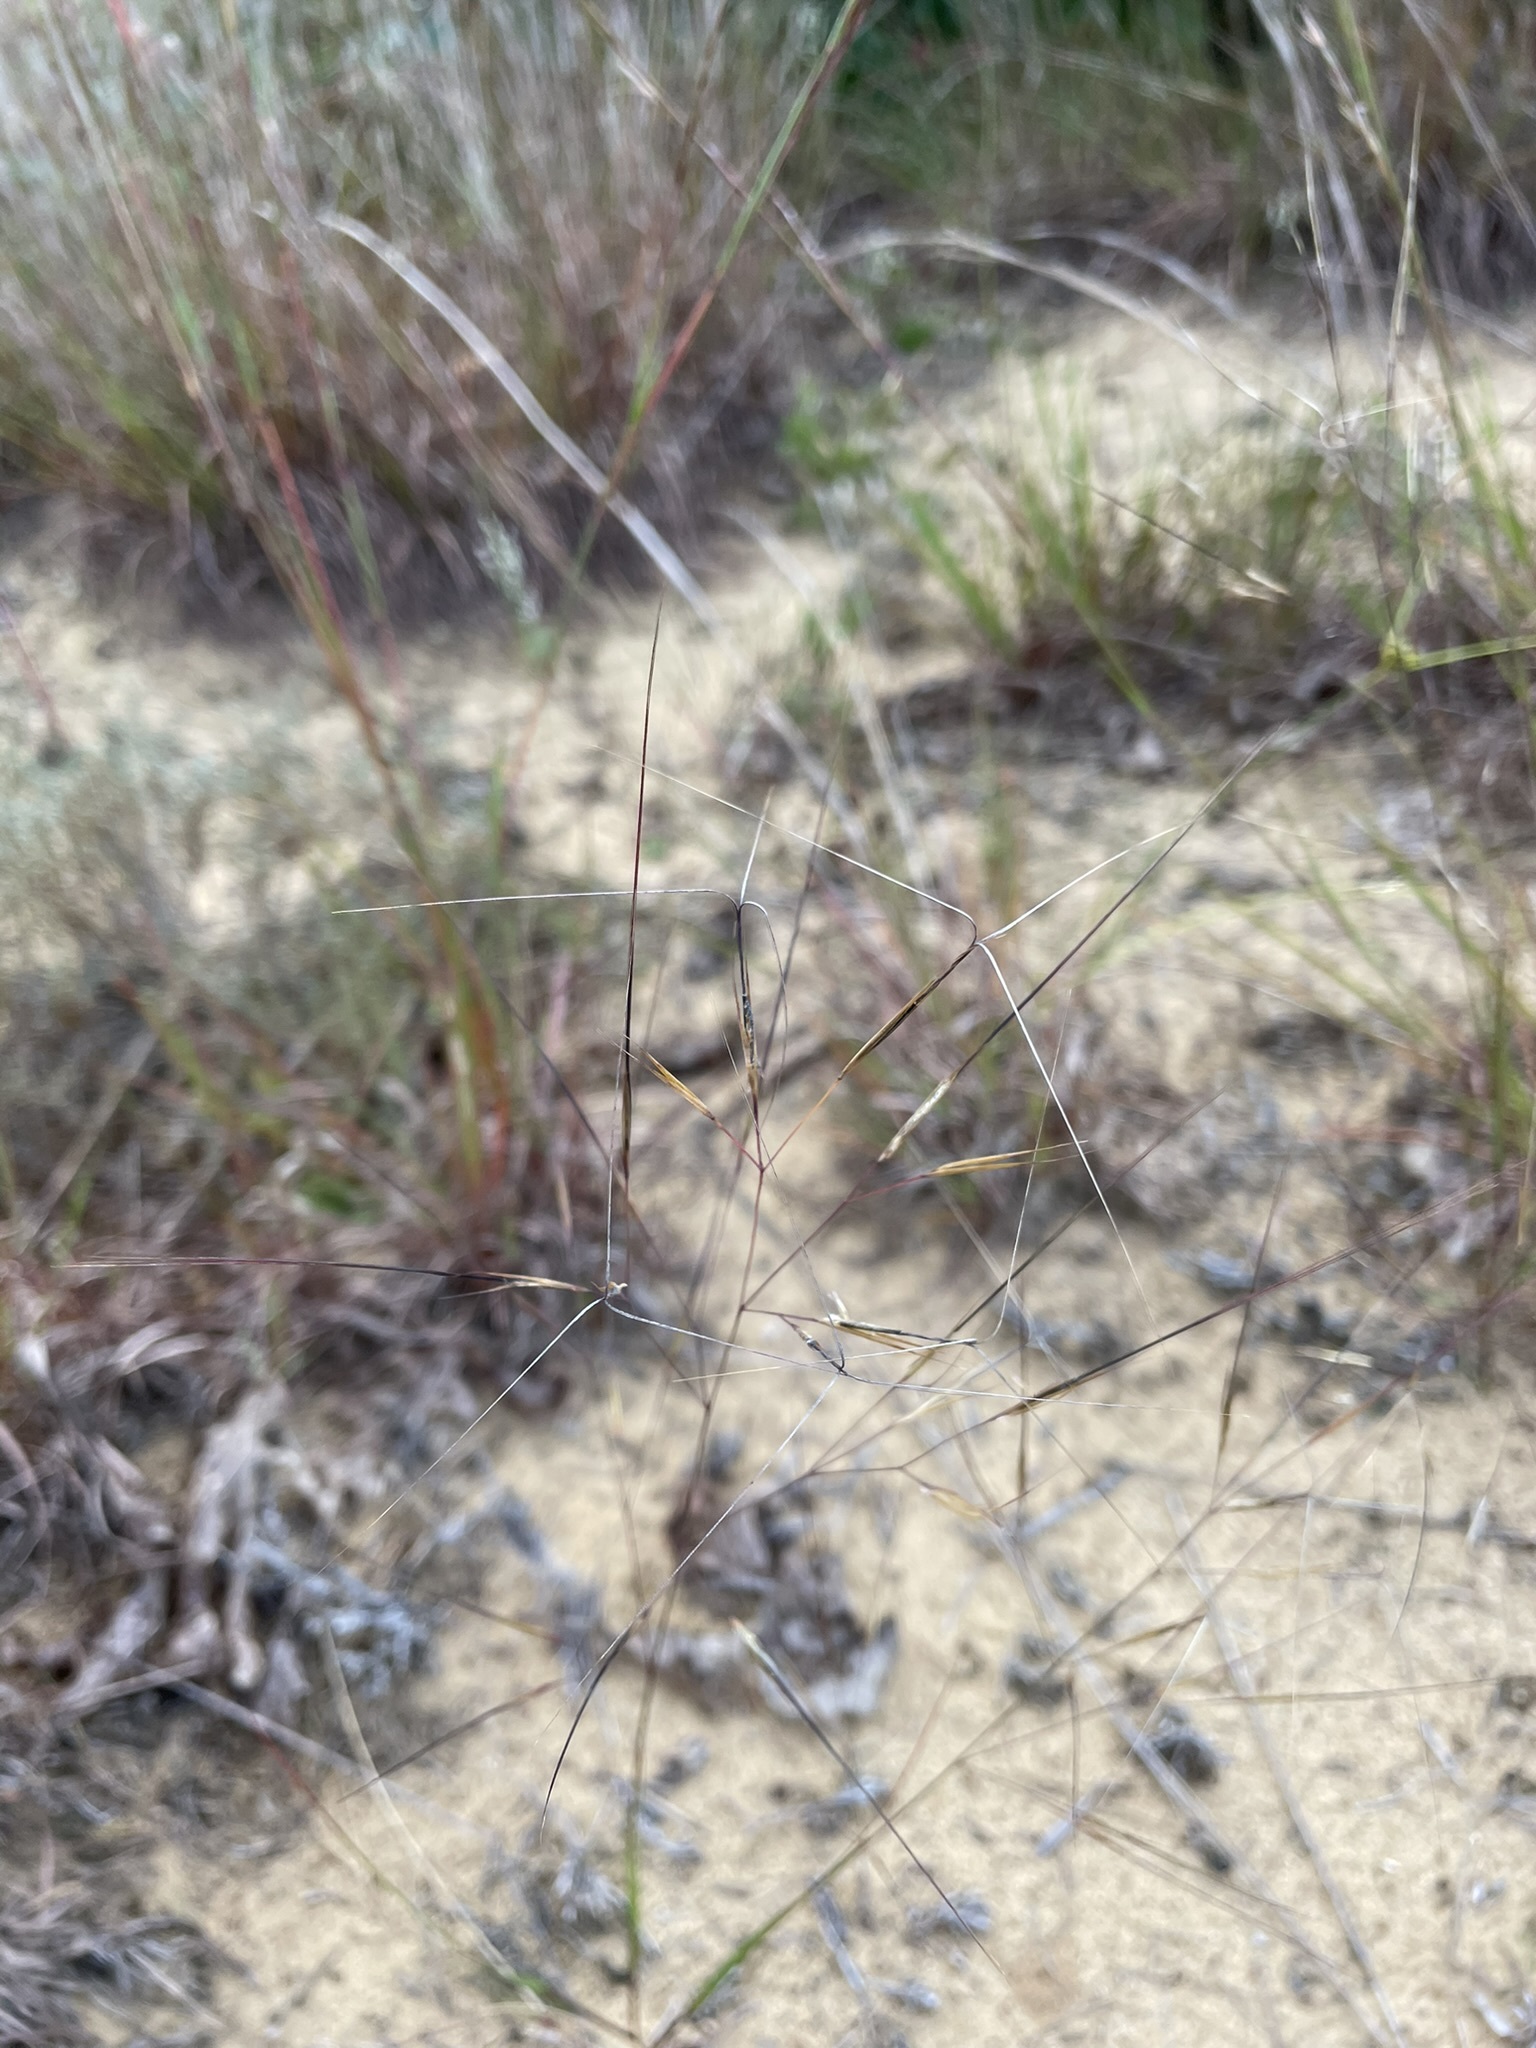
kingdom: Plantae
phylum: Tracheophyta
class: Liliopsida
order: Poales
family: Poaceae
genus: Aristida
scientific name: Aristida tuberculosa
